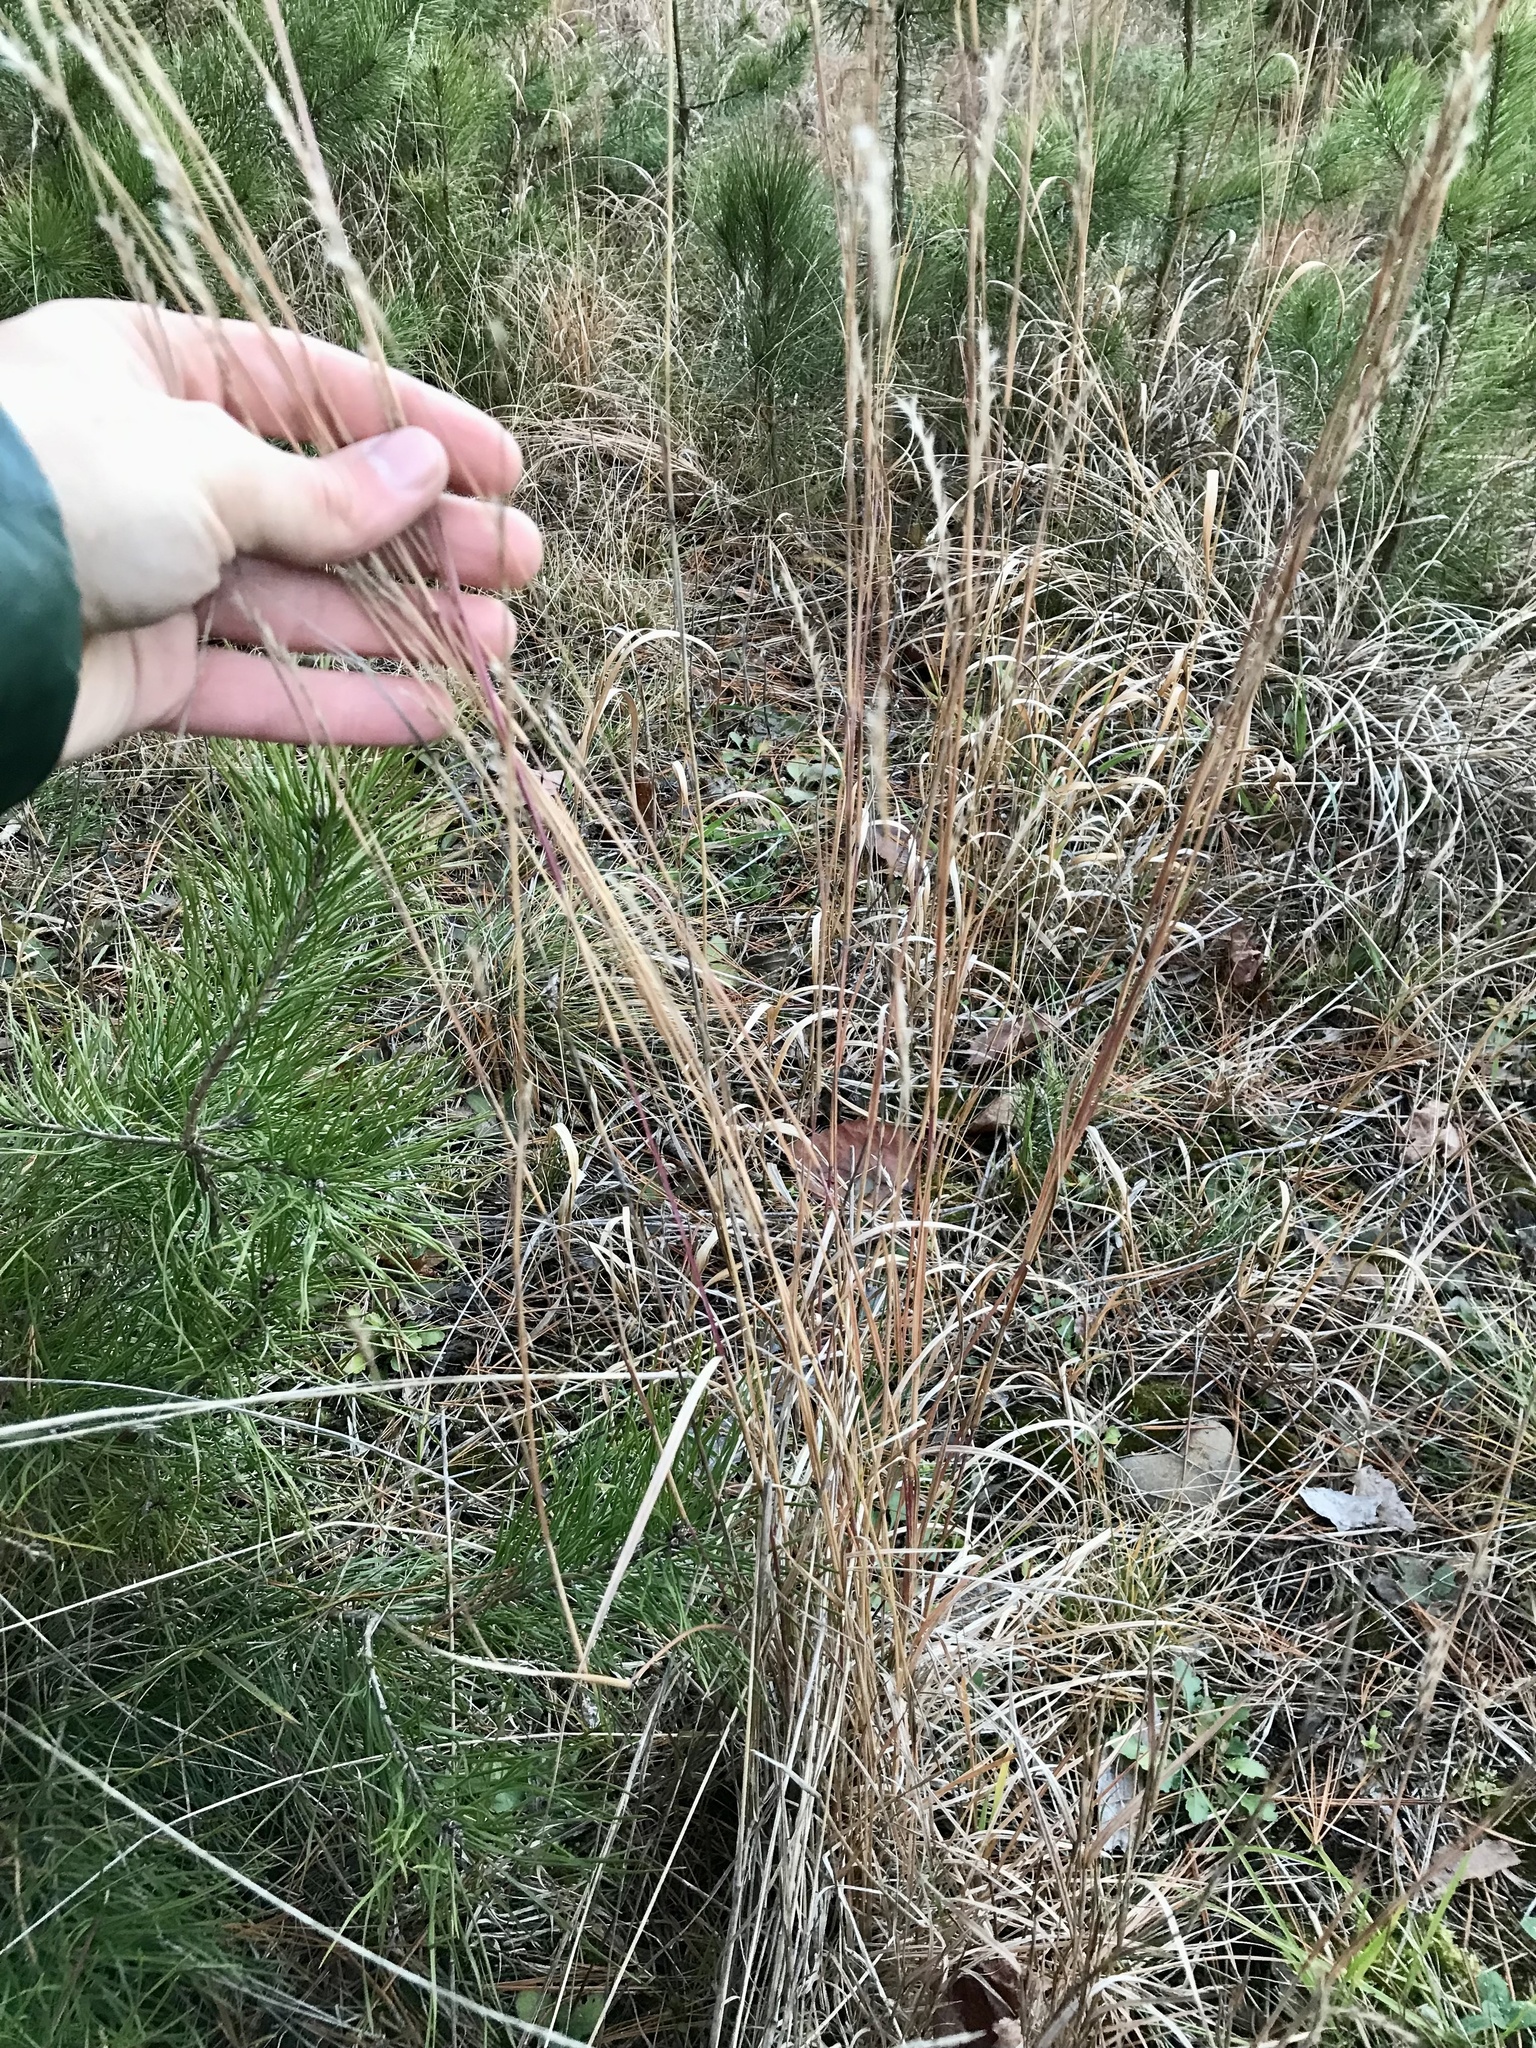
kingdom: Plantae
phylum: Tracheophyta
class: Liliopsida
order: Poales
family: Poaceae
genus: Schizachyrium
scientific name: Schizachyrium scoparium
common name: Little bluestem
